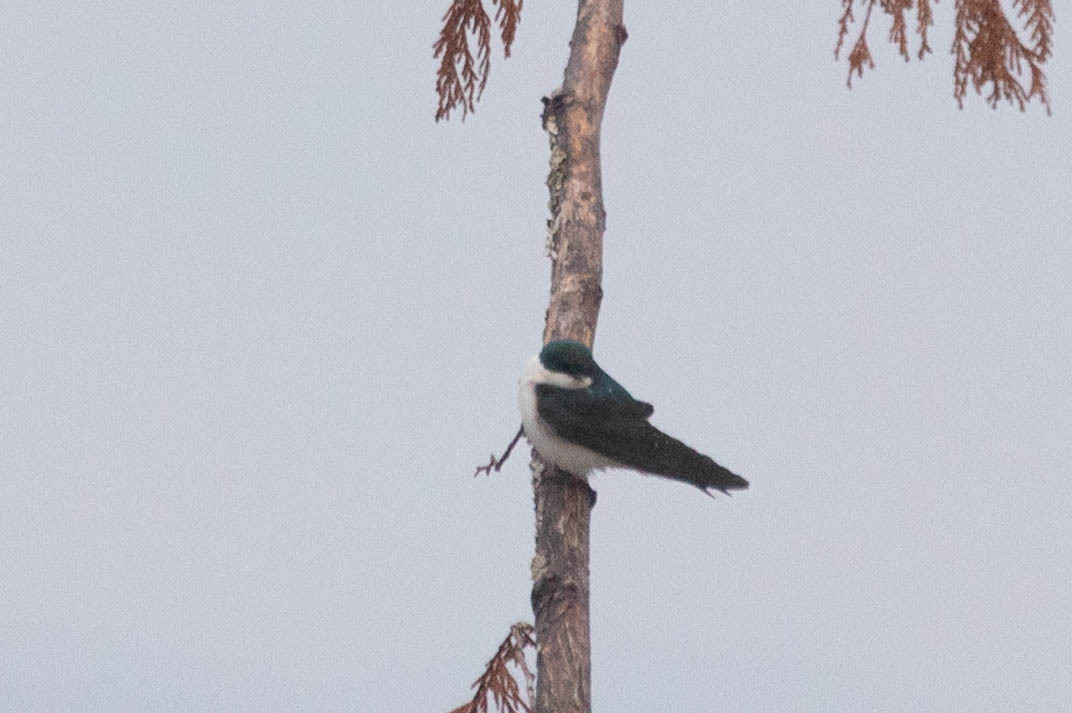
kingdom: Animalia
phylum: Chordata
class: Aves
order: Passeriformes
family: Hirundinidae
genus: Tachycineta
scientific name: Tachycineta bicolor
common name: Tree swallow
